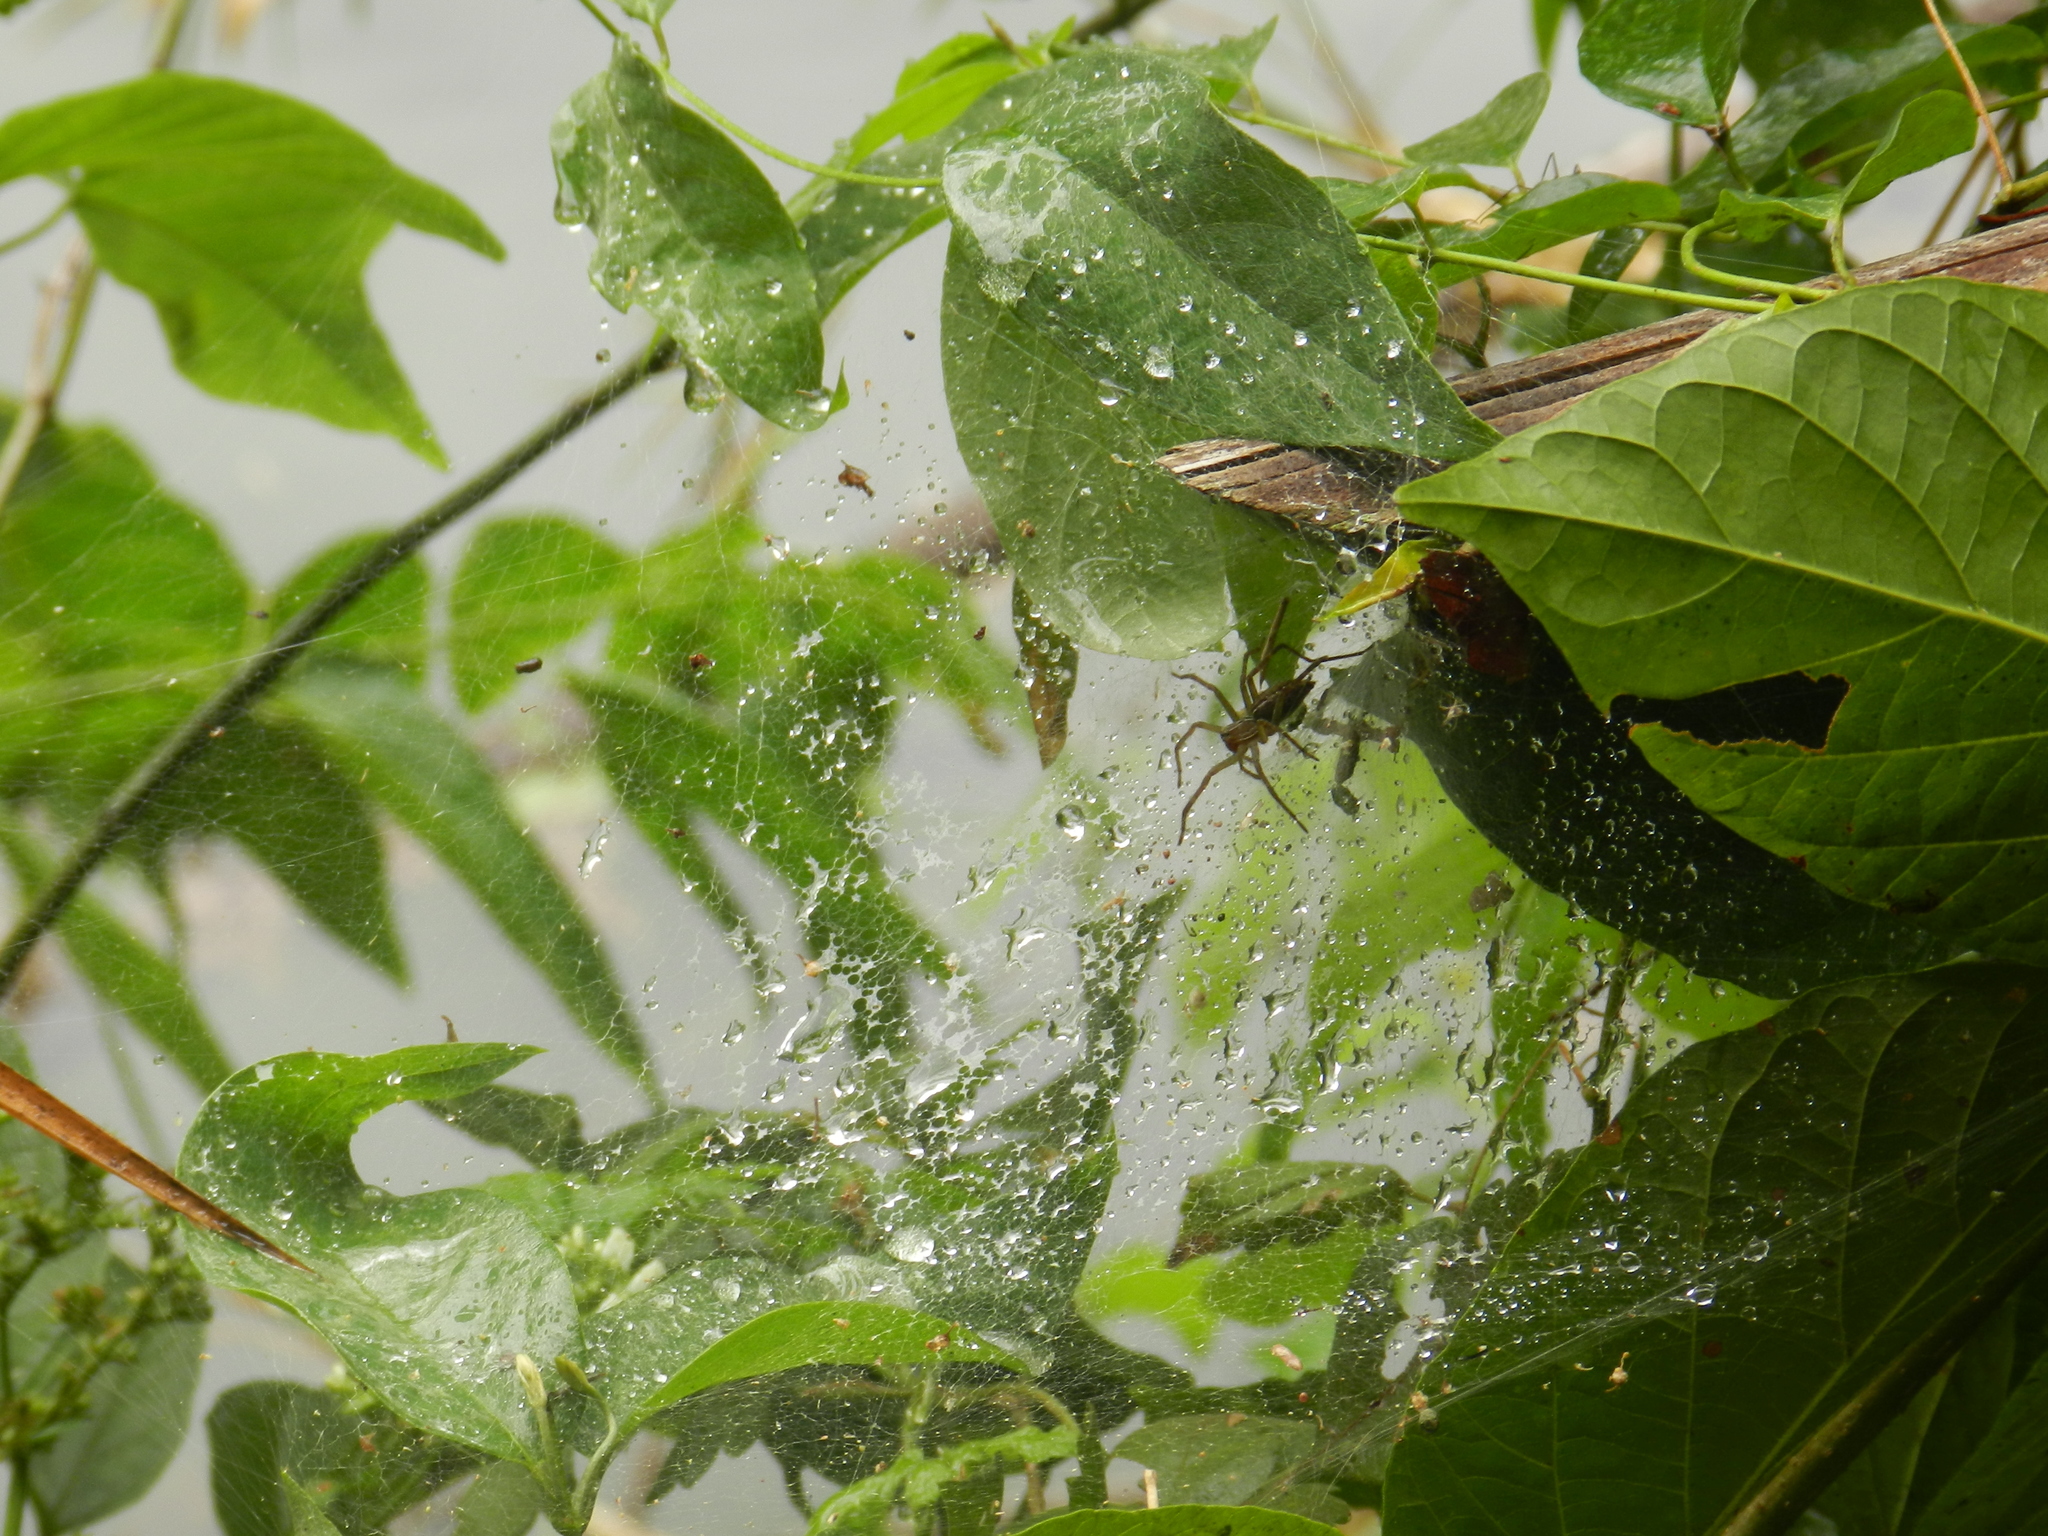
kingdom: Animalia
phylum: Arthropoda
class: Arachnida
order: Araneae
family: Lycosidae
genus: Aglaoctenus
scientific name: Aglaoctenus lagotis
